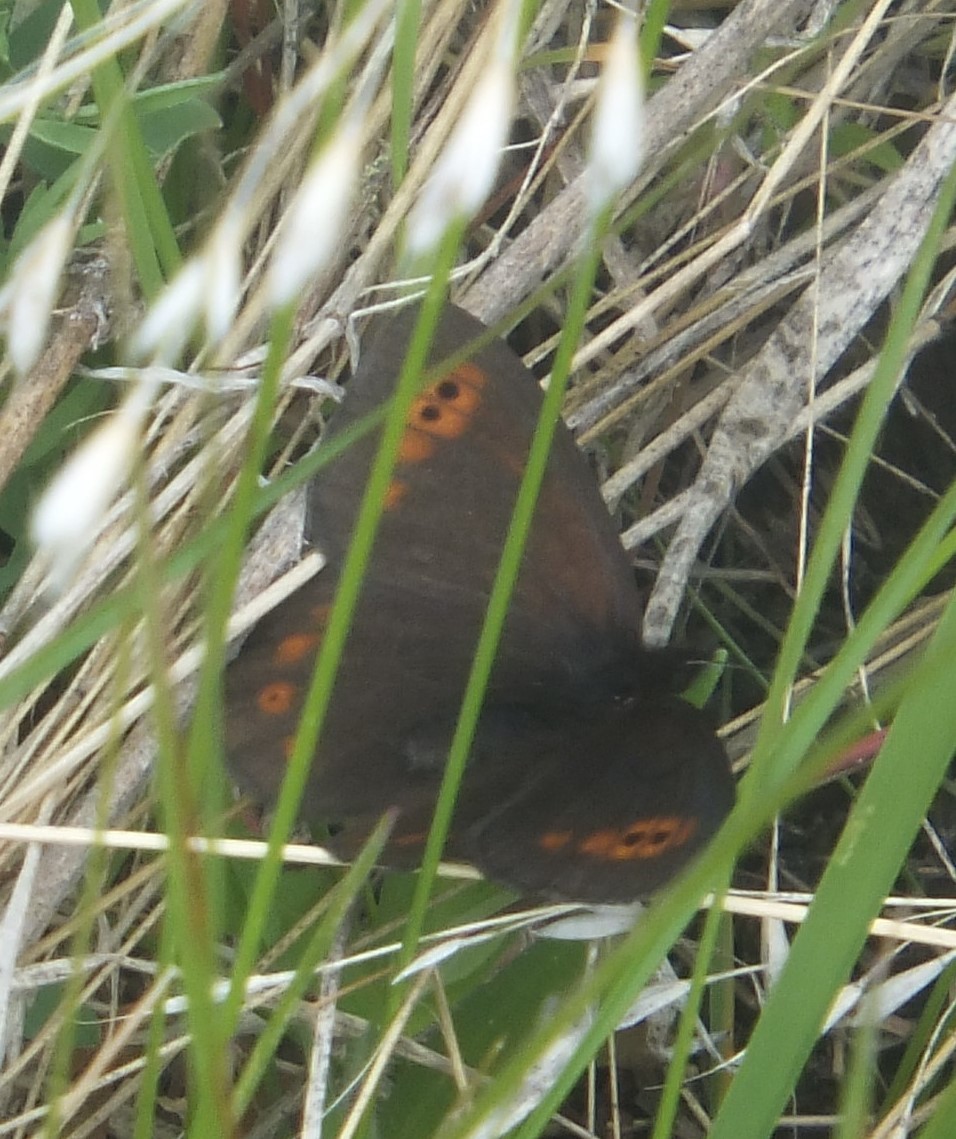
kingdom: Animalia
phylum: Arthropoda
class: Insecta
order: Lepidoptera
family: Nymphalidae
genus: Erebia
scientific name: Erebia epipsodea
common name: Common alpine
